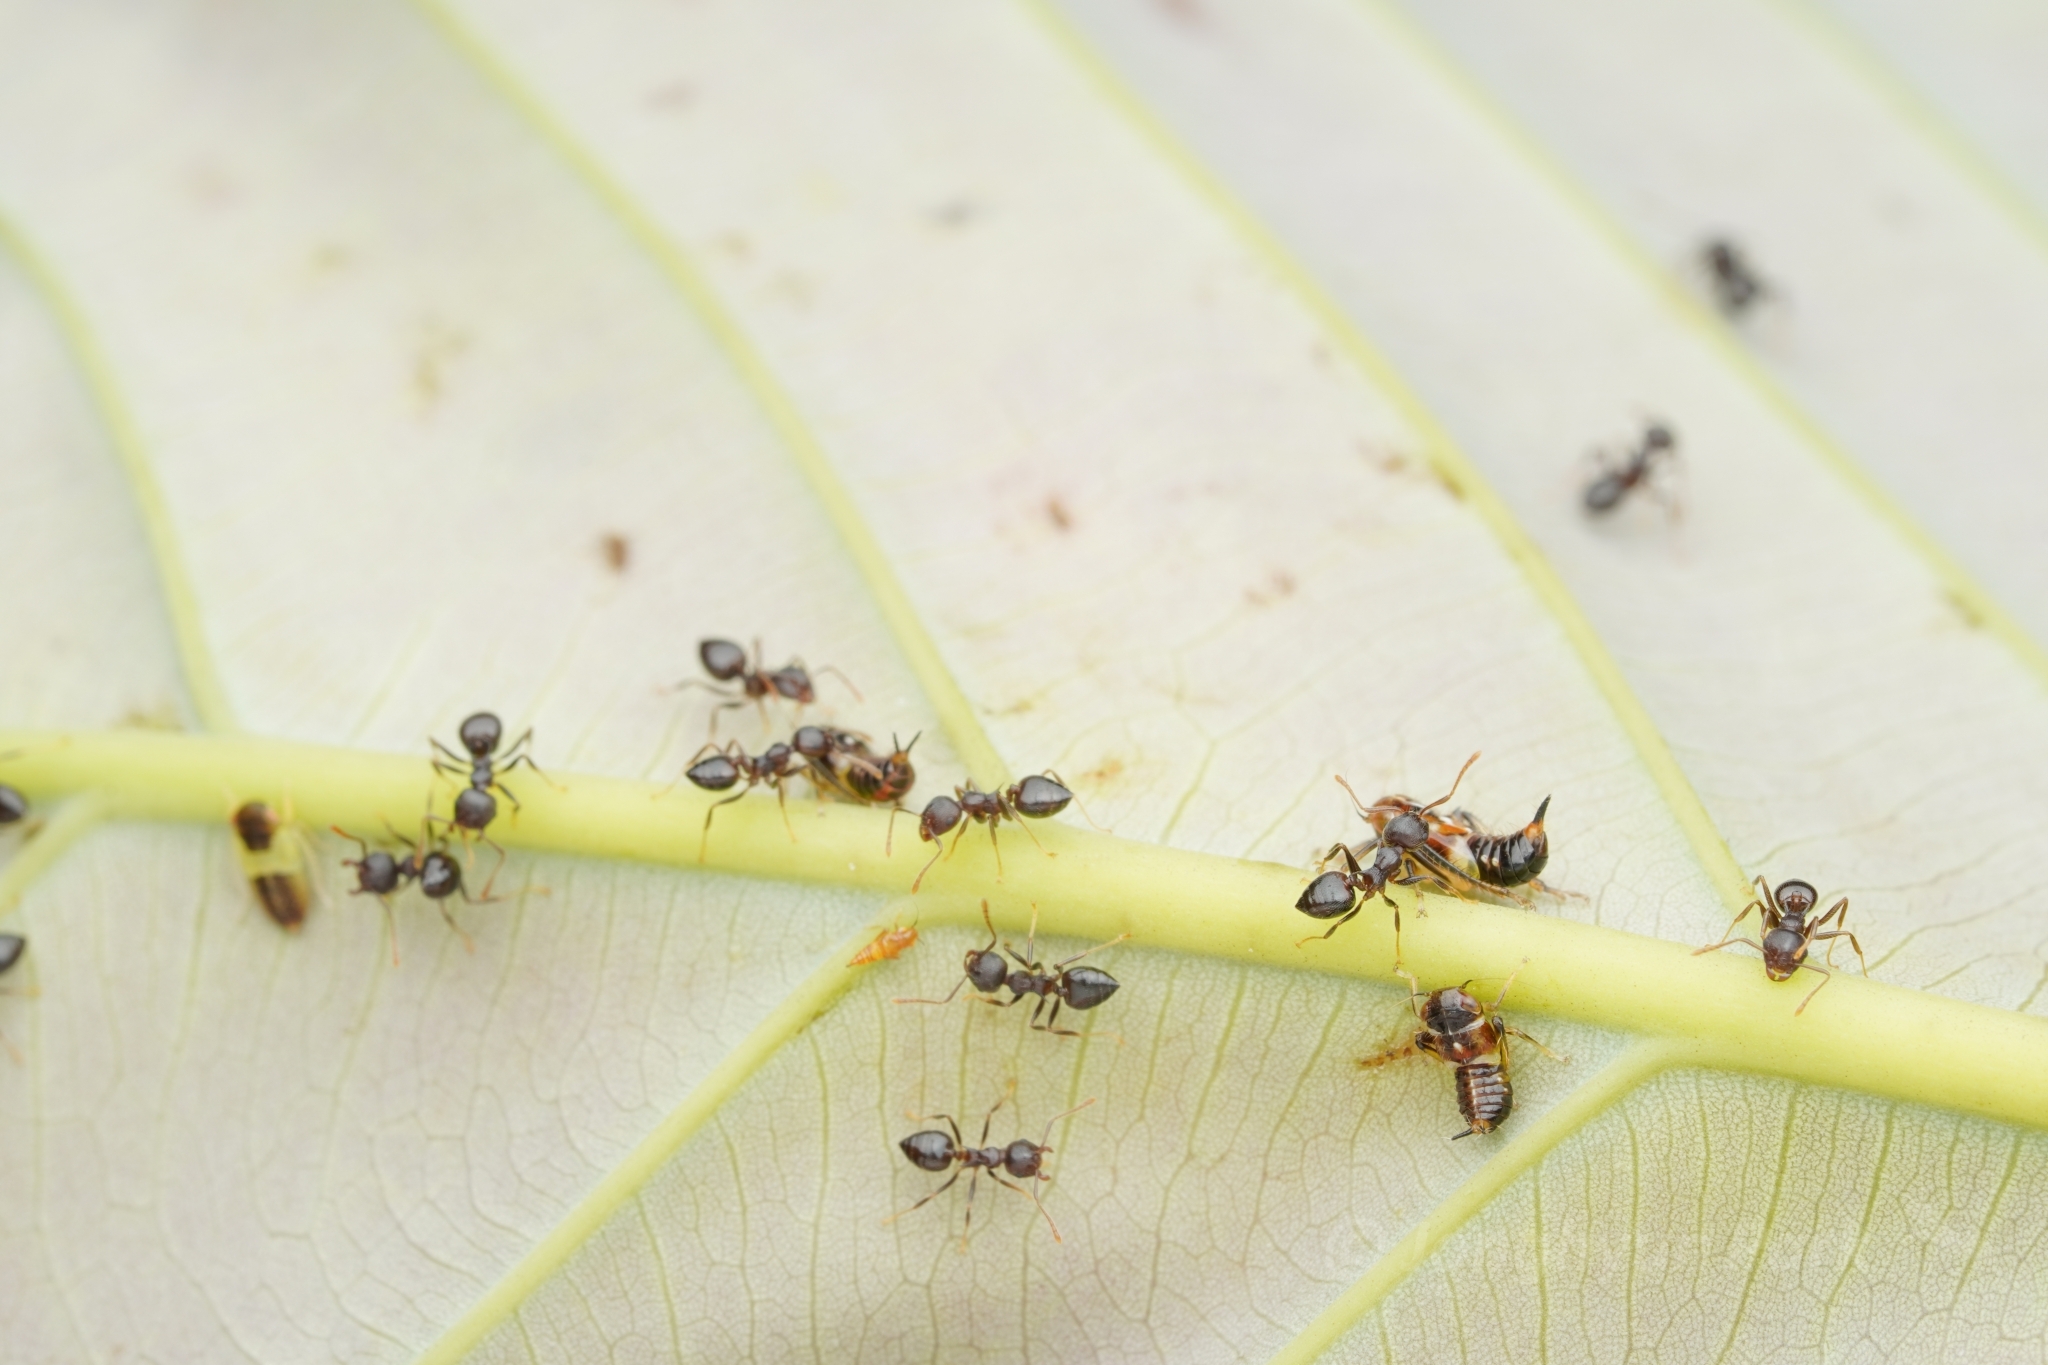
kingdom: Animalia
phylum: Arthropoda
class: Insecta
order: Hymenoptera
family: Formicidae
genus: Crematogaster
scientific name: Crematogaster modiglianii
